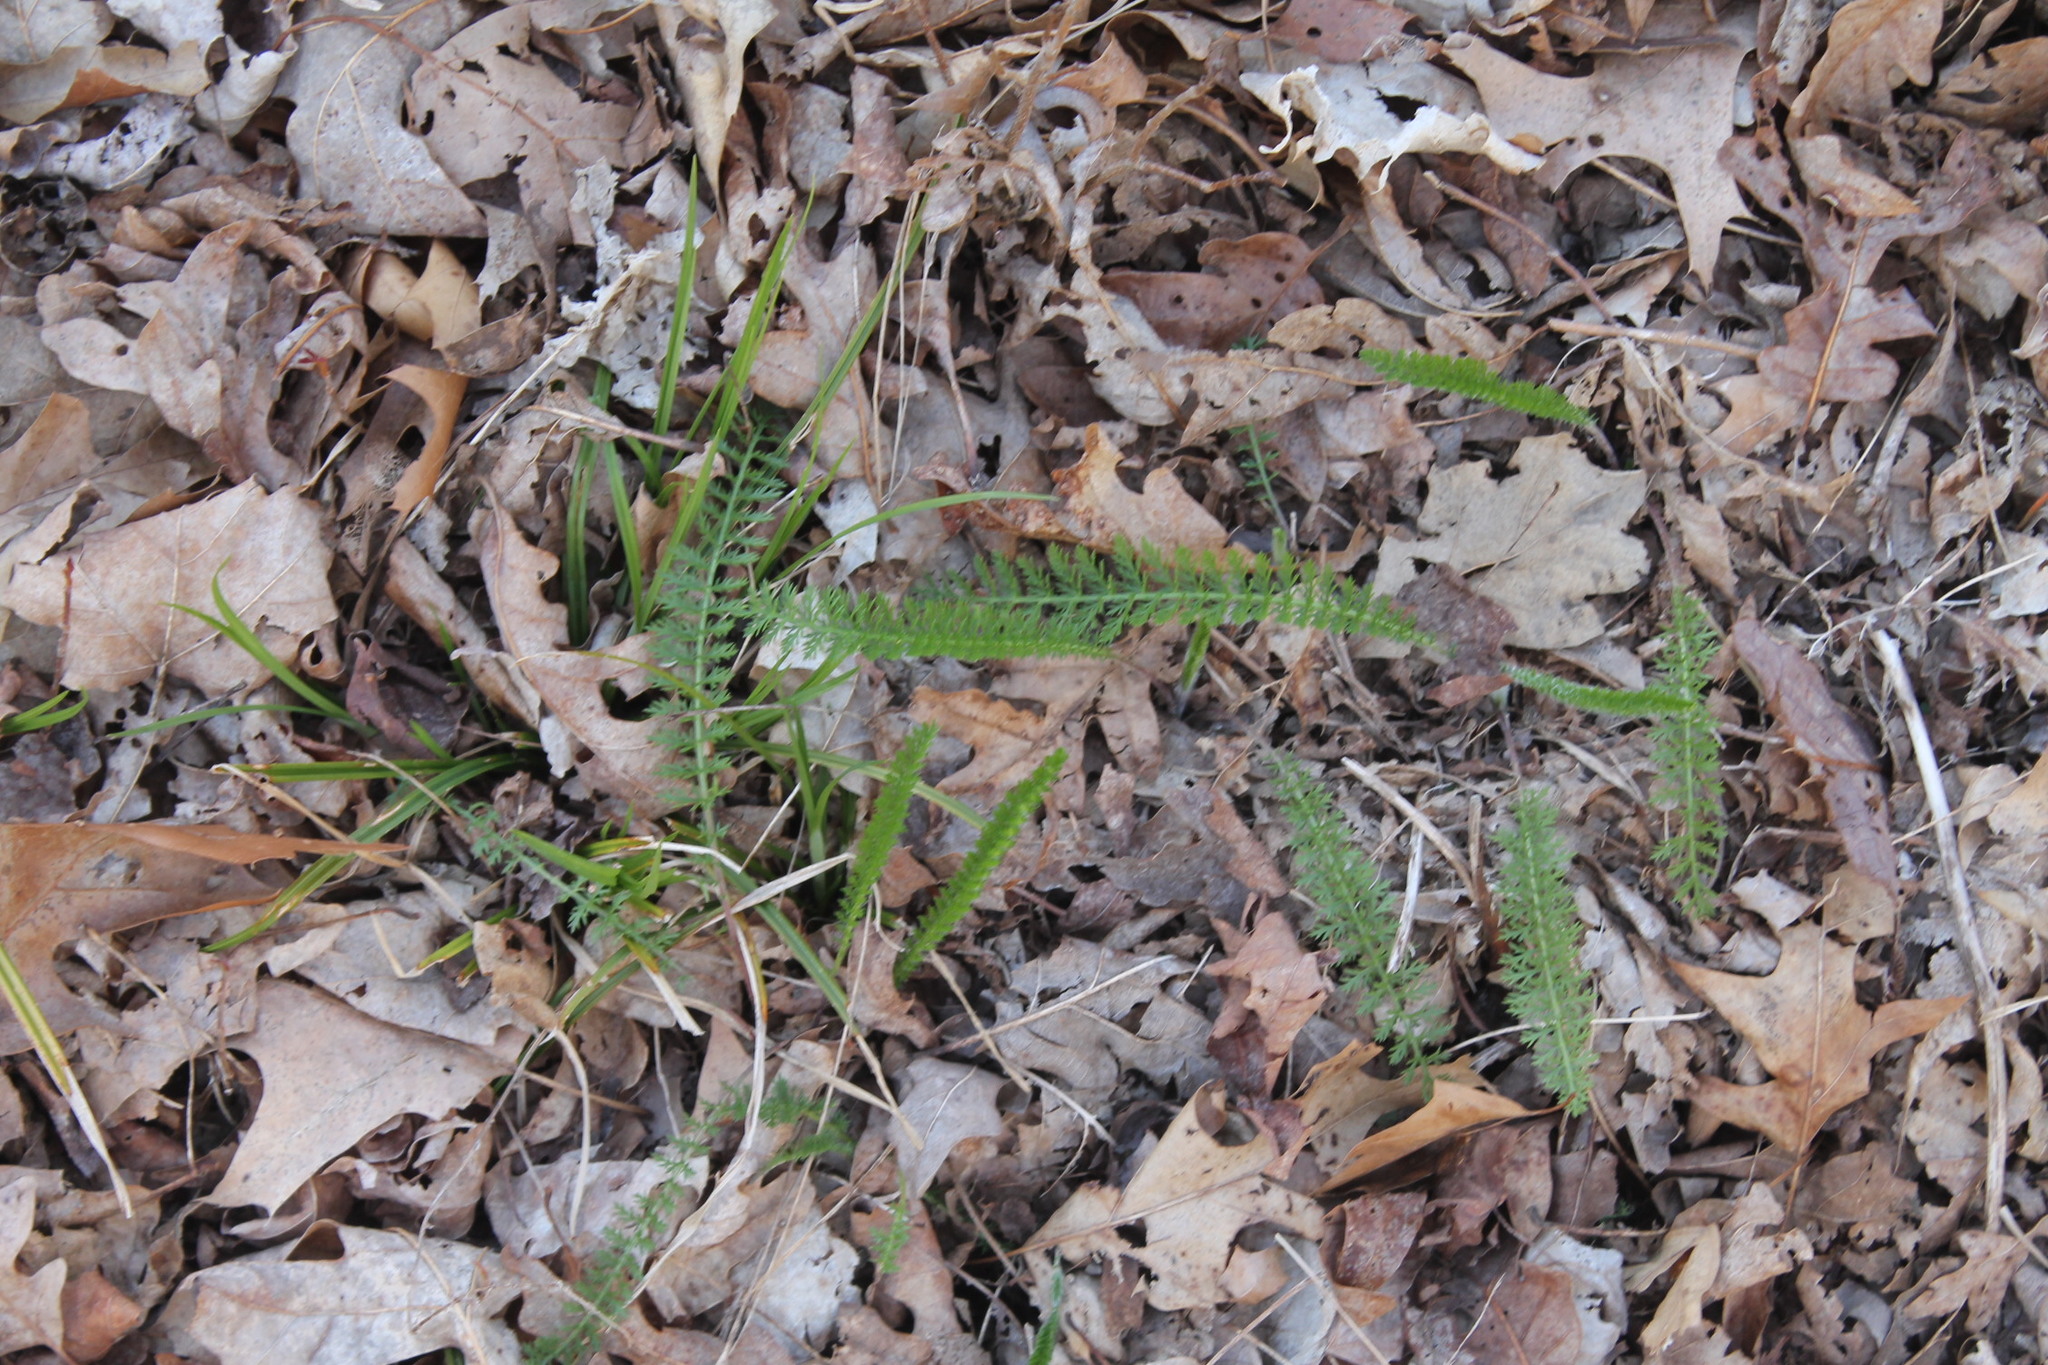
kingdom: Plantae
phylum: Tracheophyta
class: Magnoliopsida
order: Asterales
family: Asteraceae
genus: Achillea
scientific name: Achillea millefolium
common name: Yarrow
